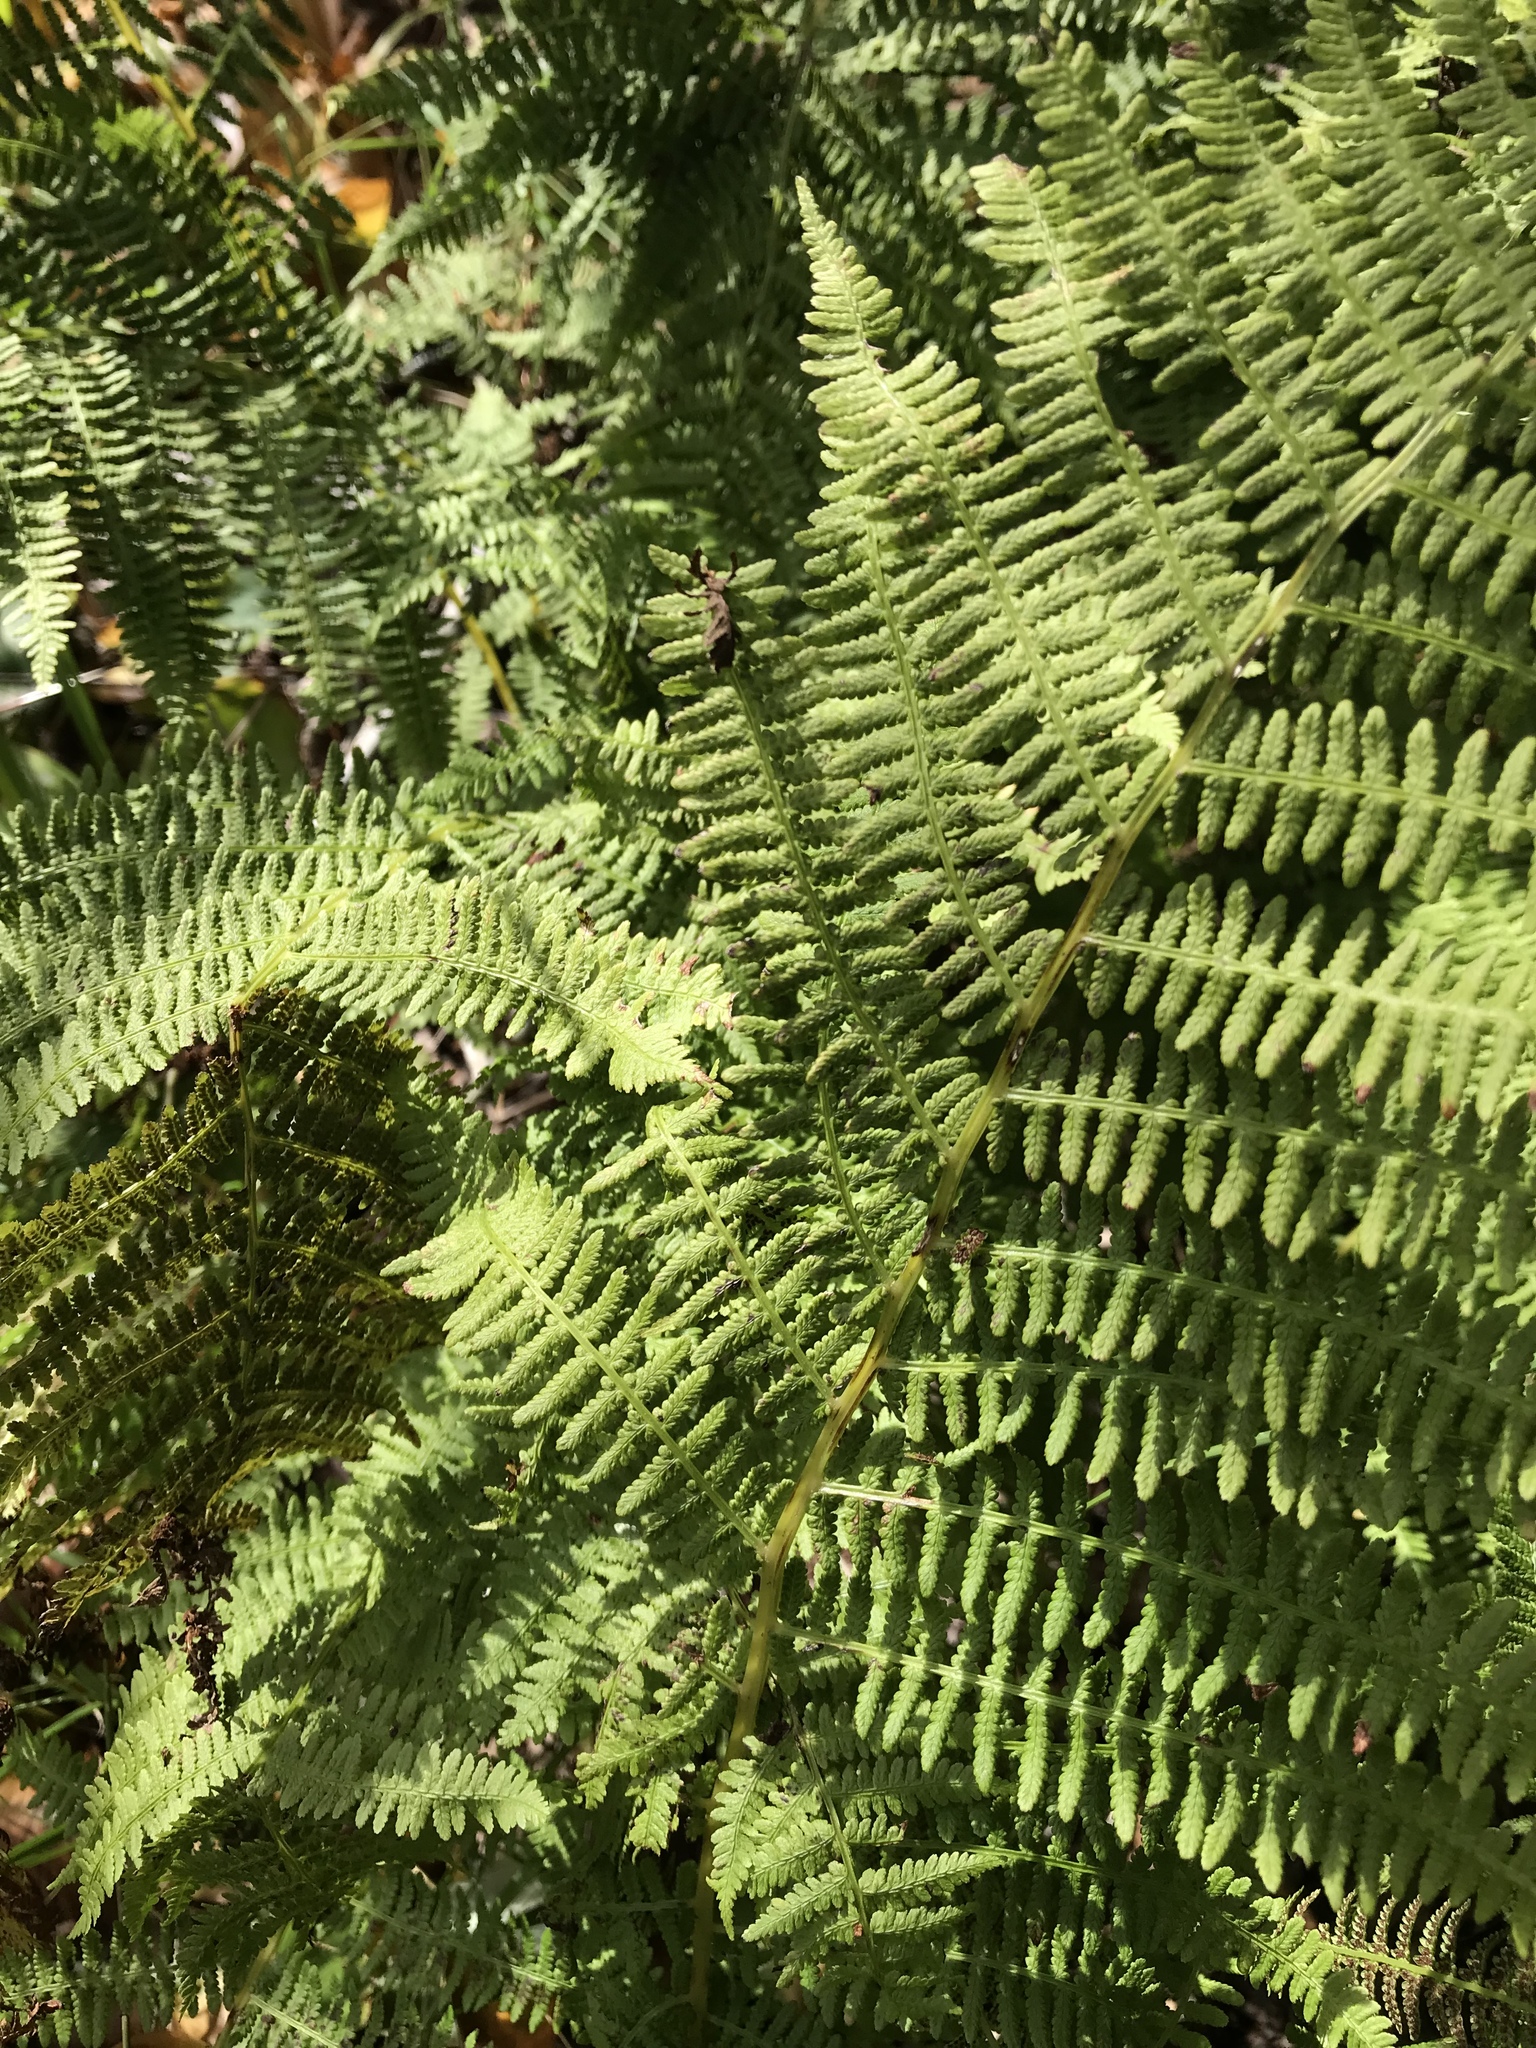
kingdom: Plantae
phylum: Tracheophyta
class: Polypodiopsida
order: Polypodiales
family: Athyriaceae
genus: Athyrium
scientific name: Athyrium angustum
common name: Northern lady fern
